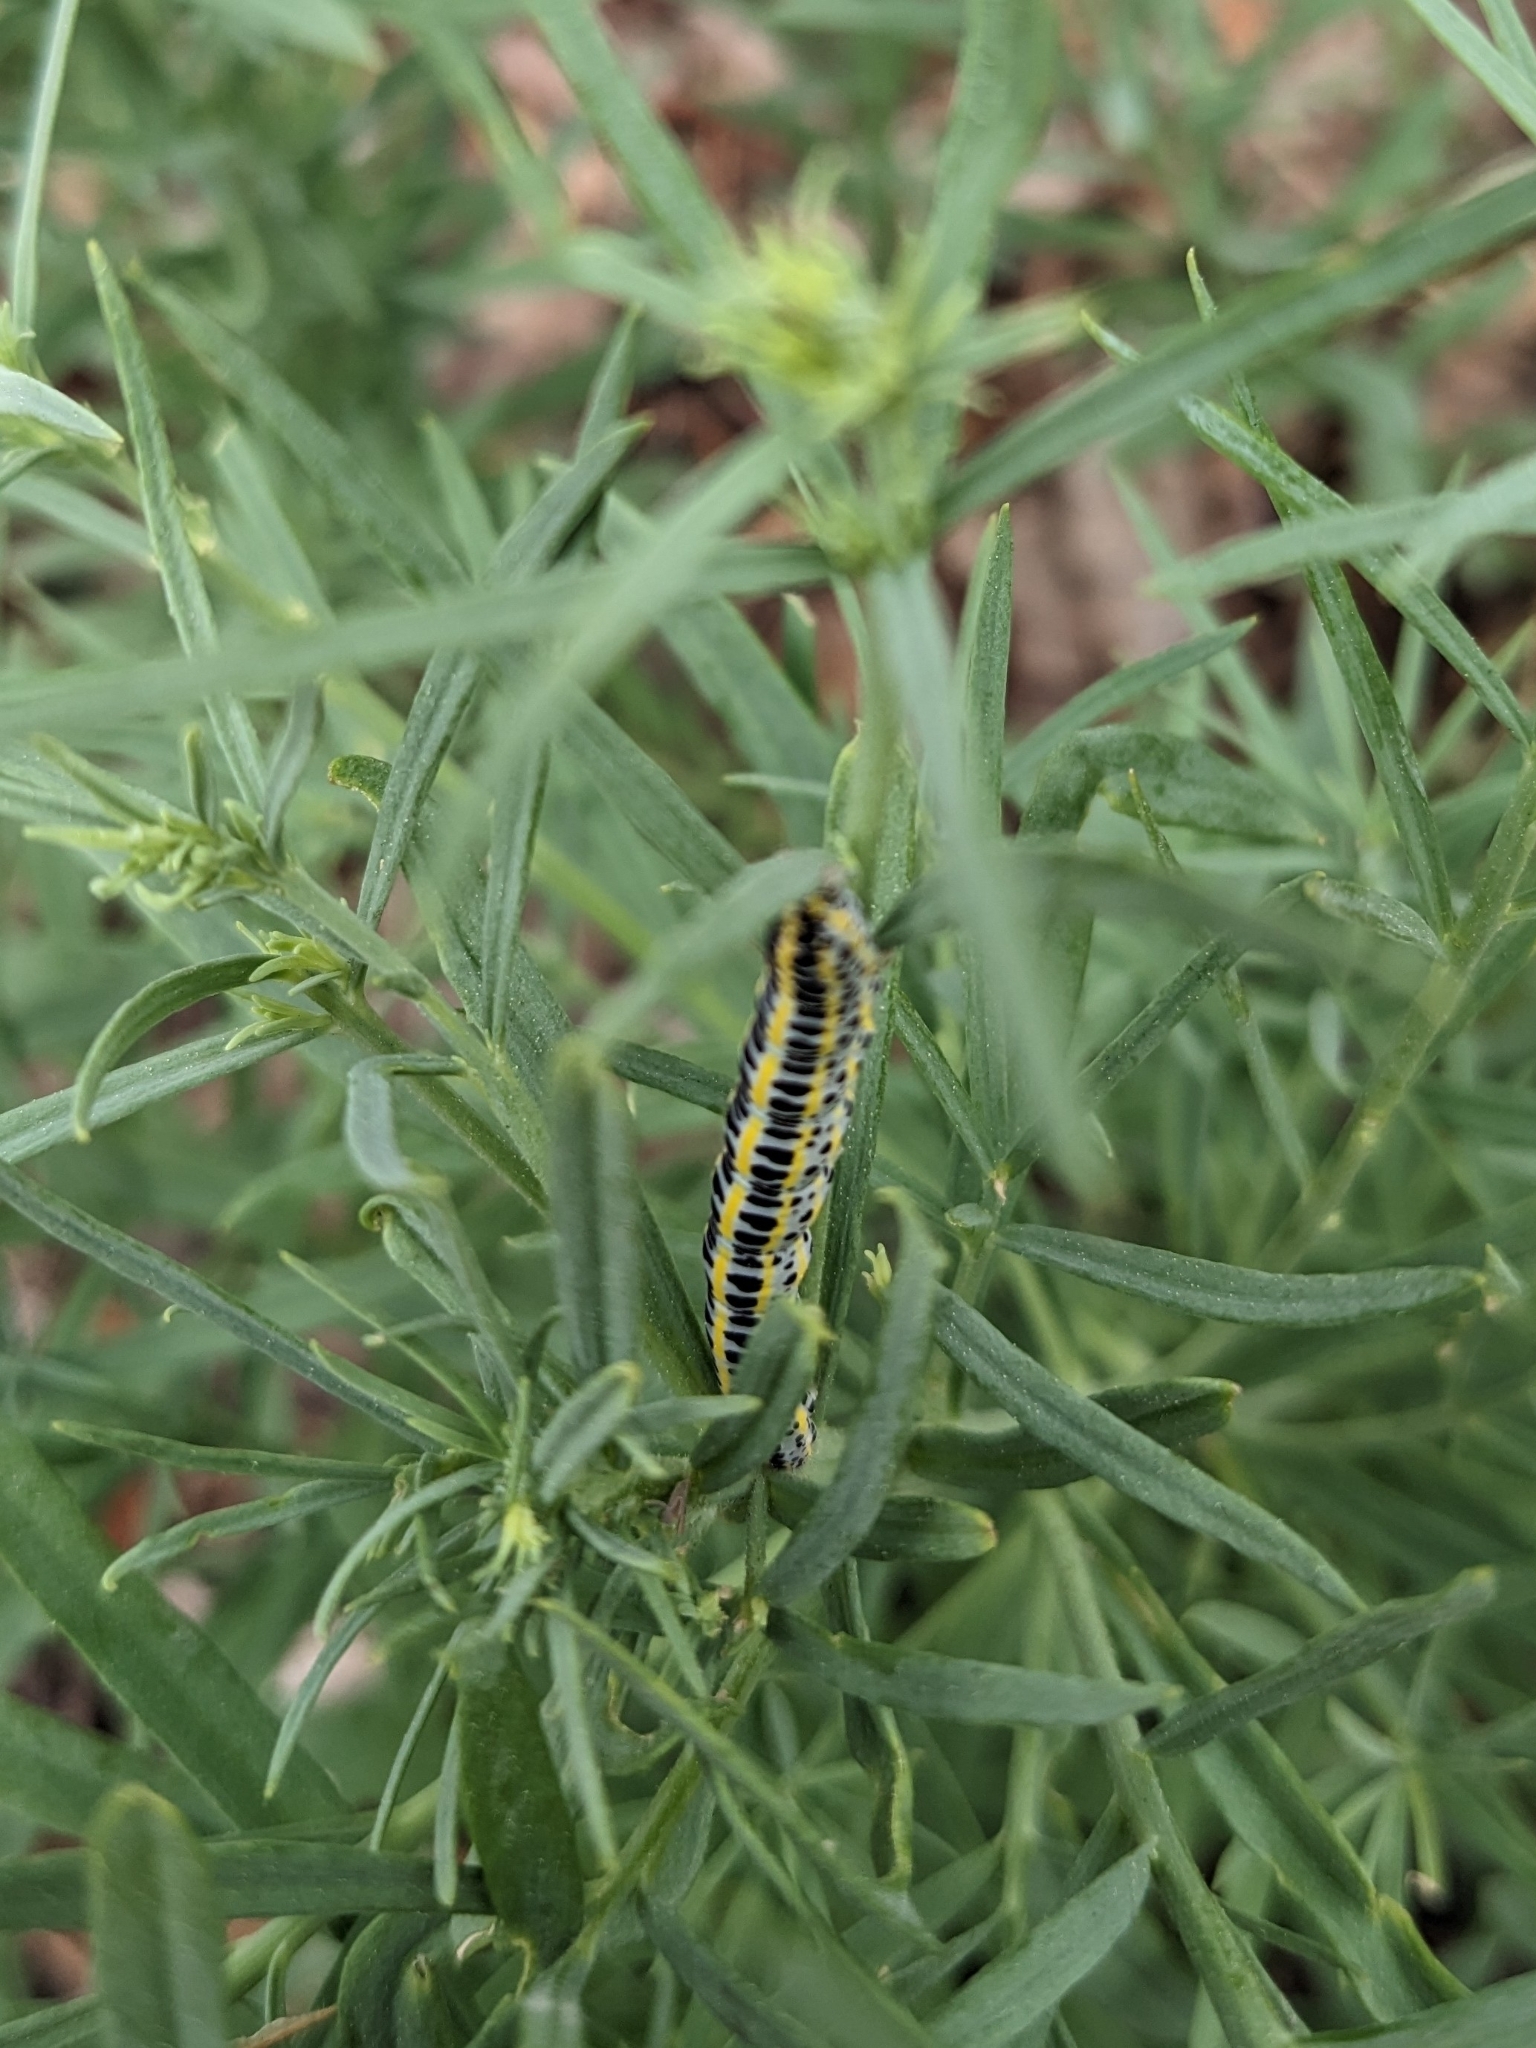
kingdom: Animalia
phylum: Arthropoda
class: Insecta
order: Lepidoptera
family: Noctuidae
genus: Calophasia
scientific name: Calophasia lunula
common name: Toadflax brocade
